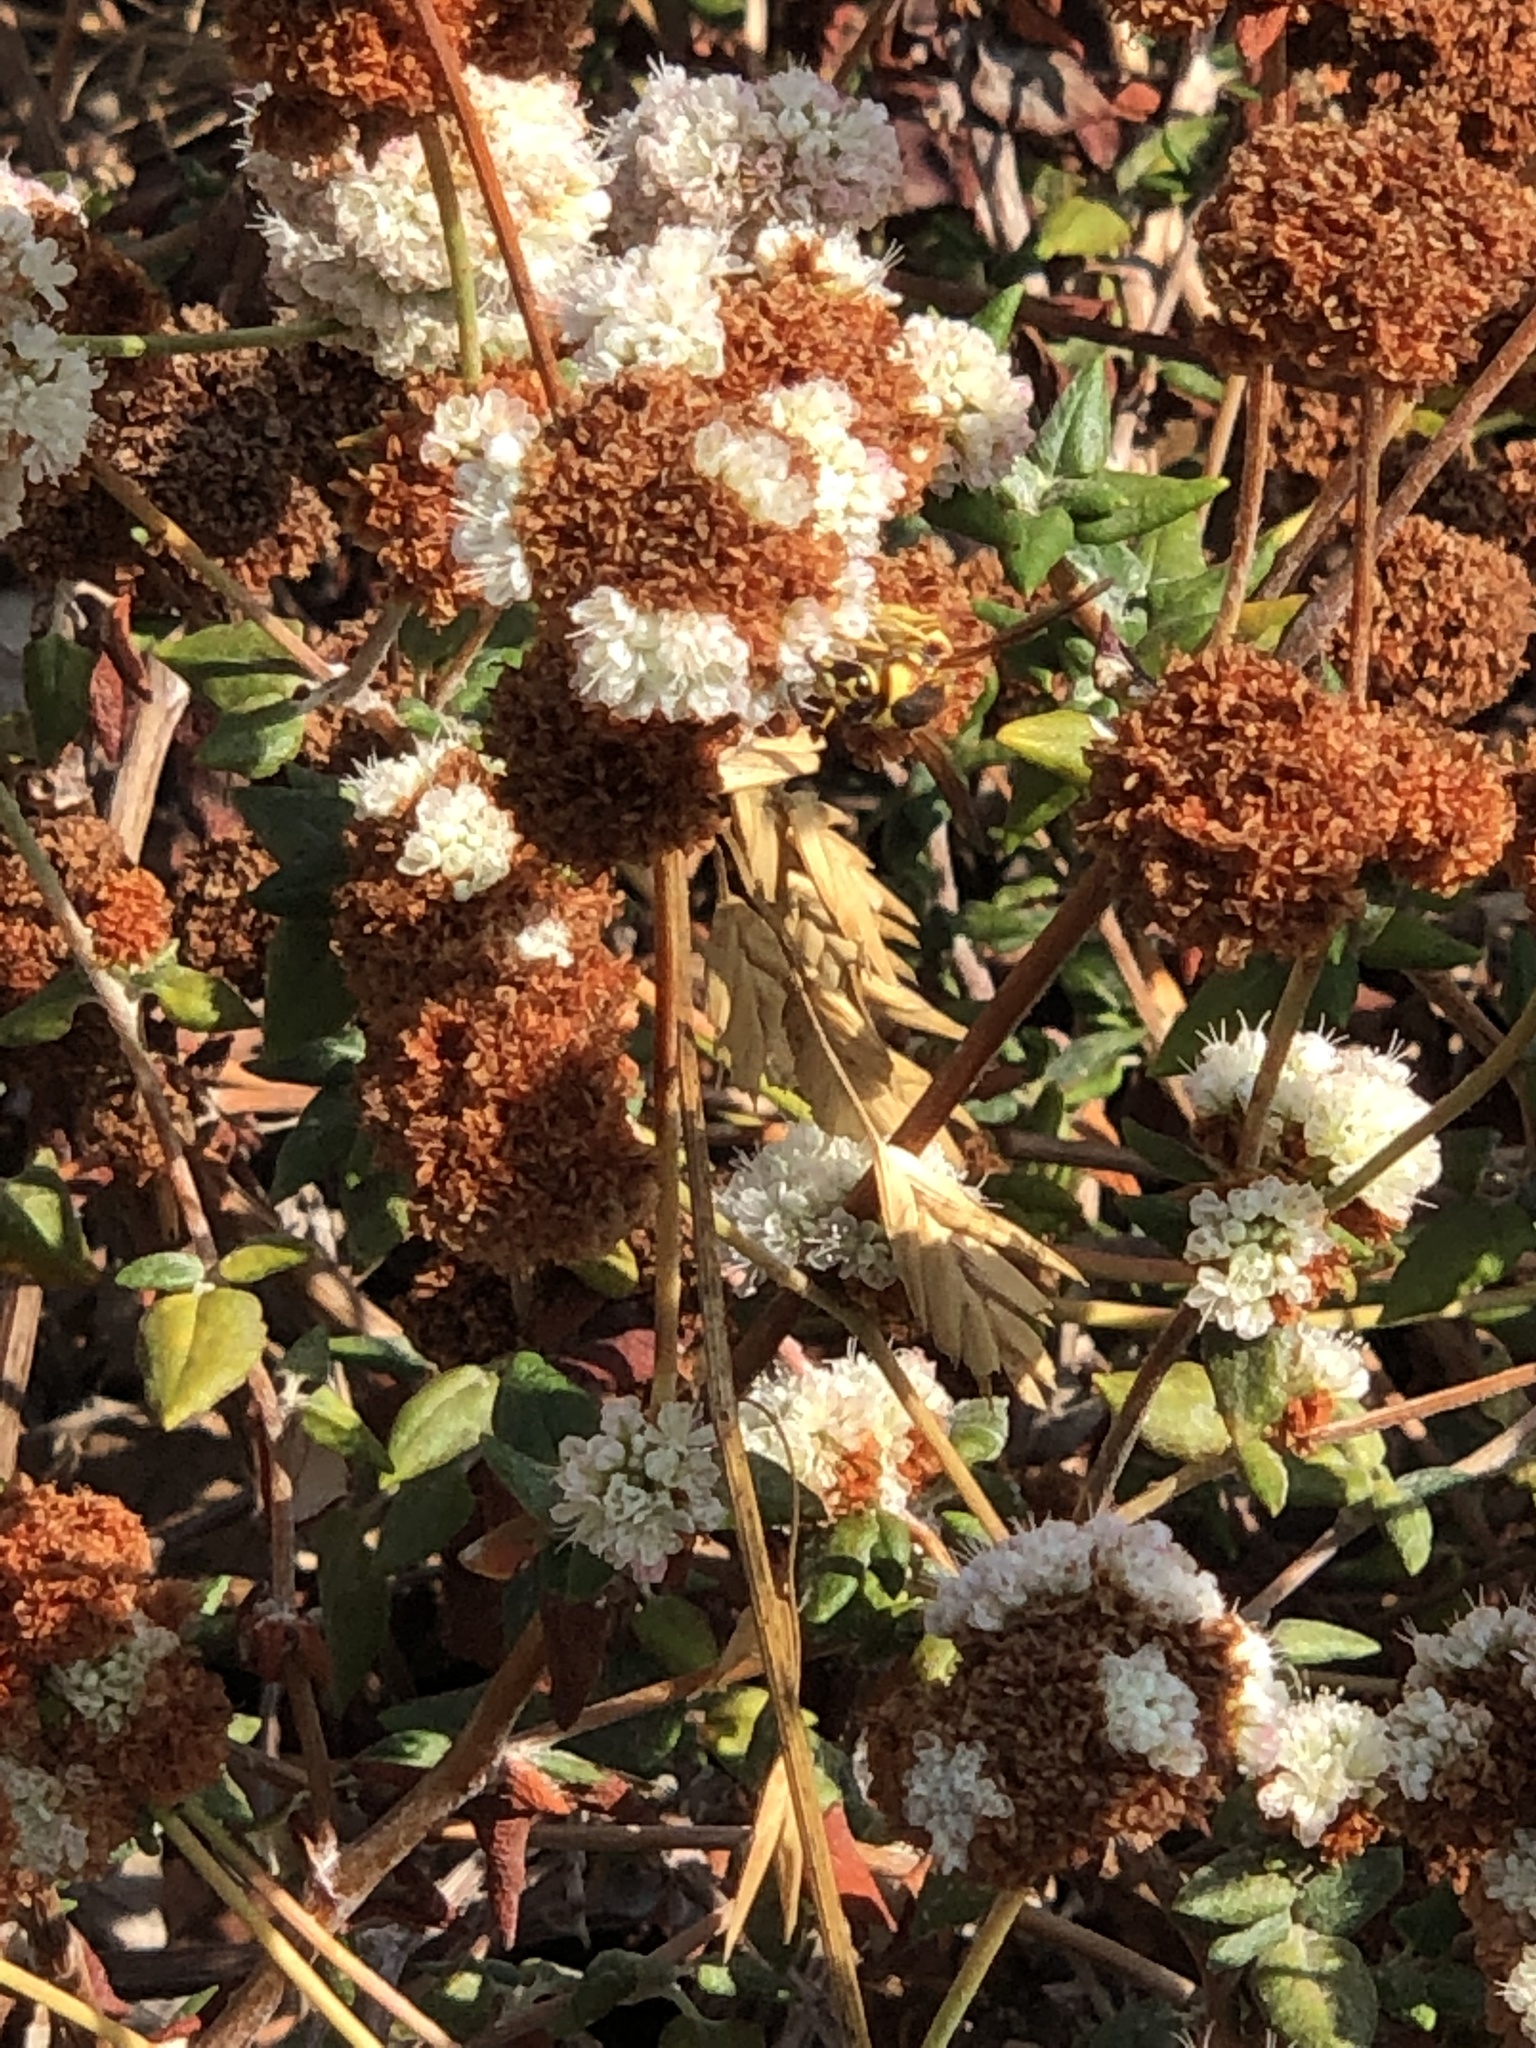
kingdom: Animalia
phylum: Arthropoda
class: Insecta
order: Hymenoptera
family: Eumenidae
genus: Euodynerus
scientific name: Euodynerus hidalgo
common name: Wasp
